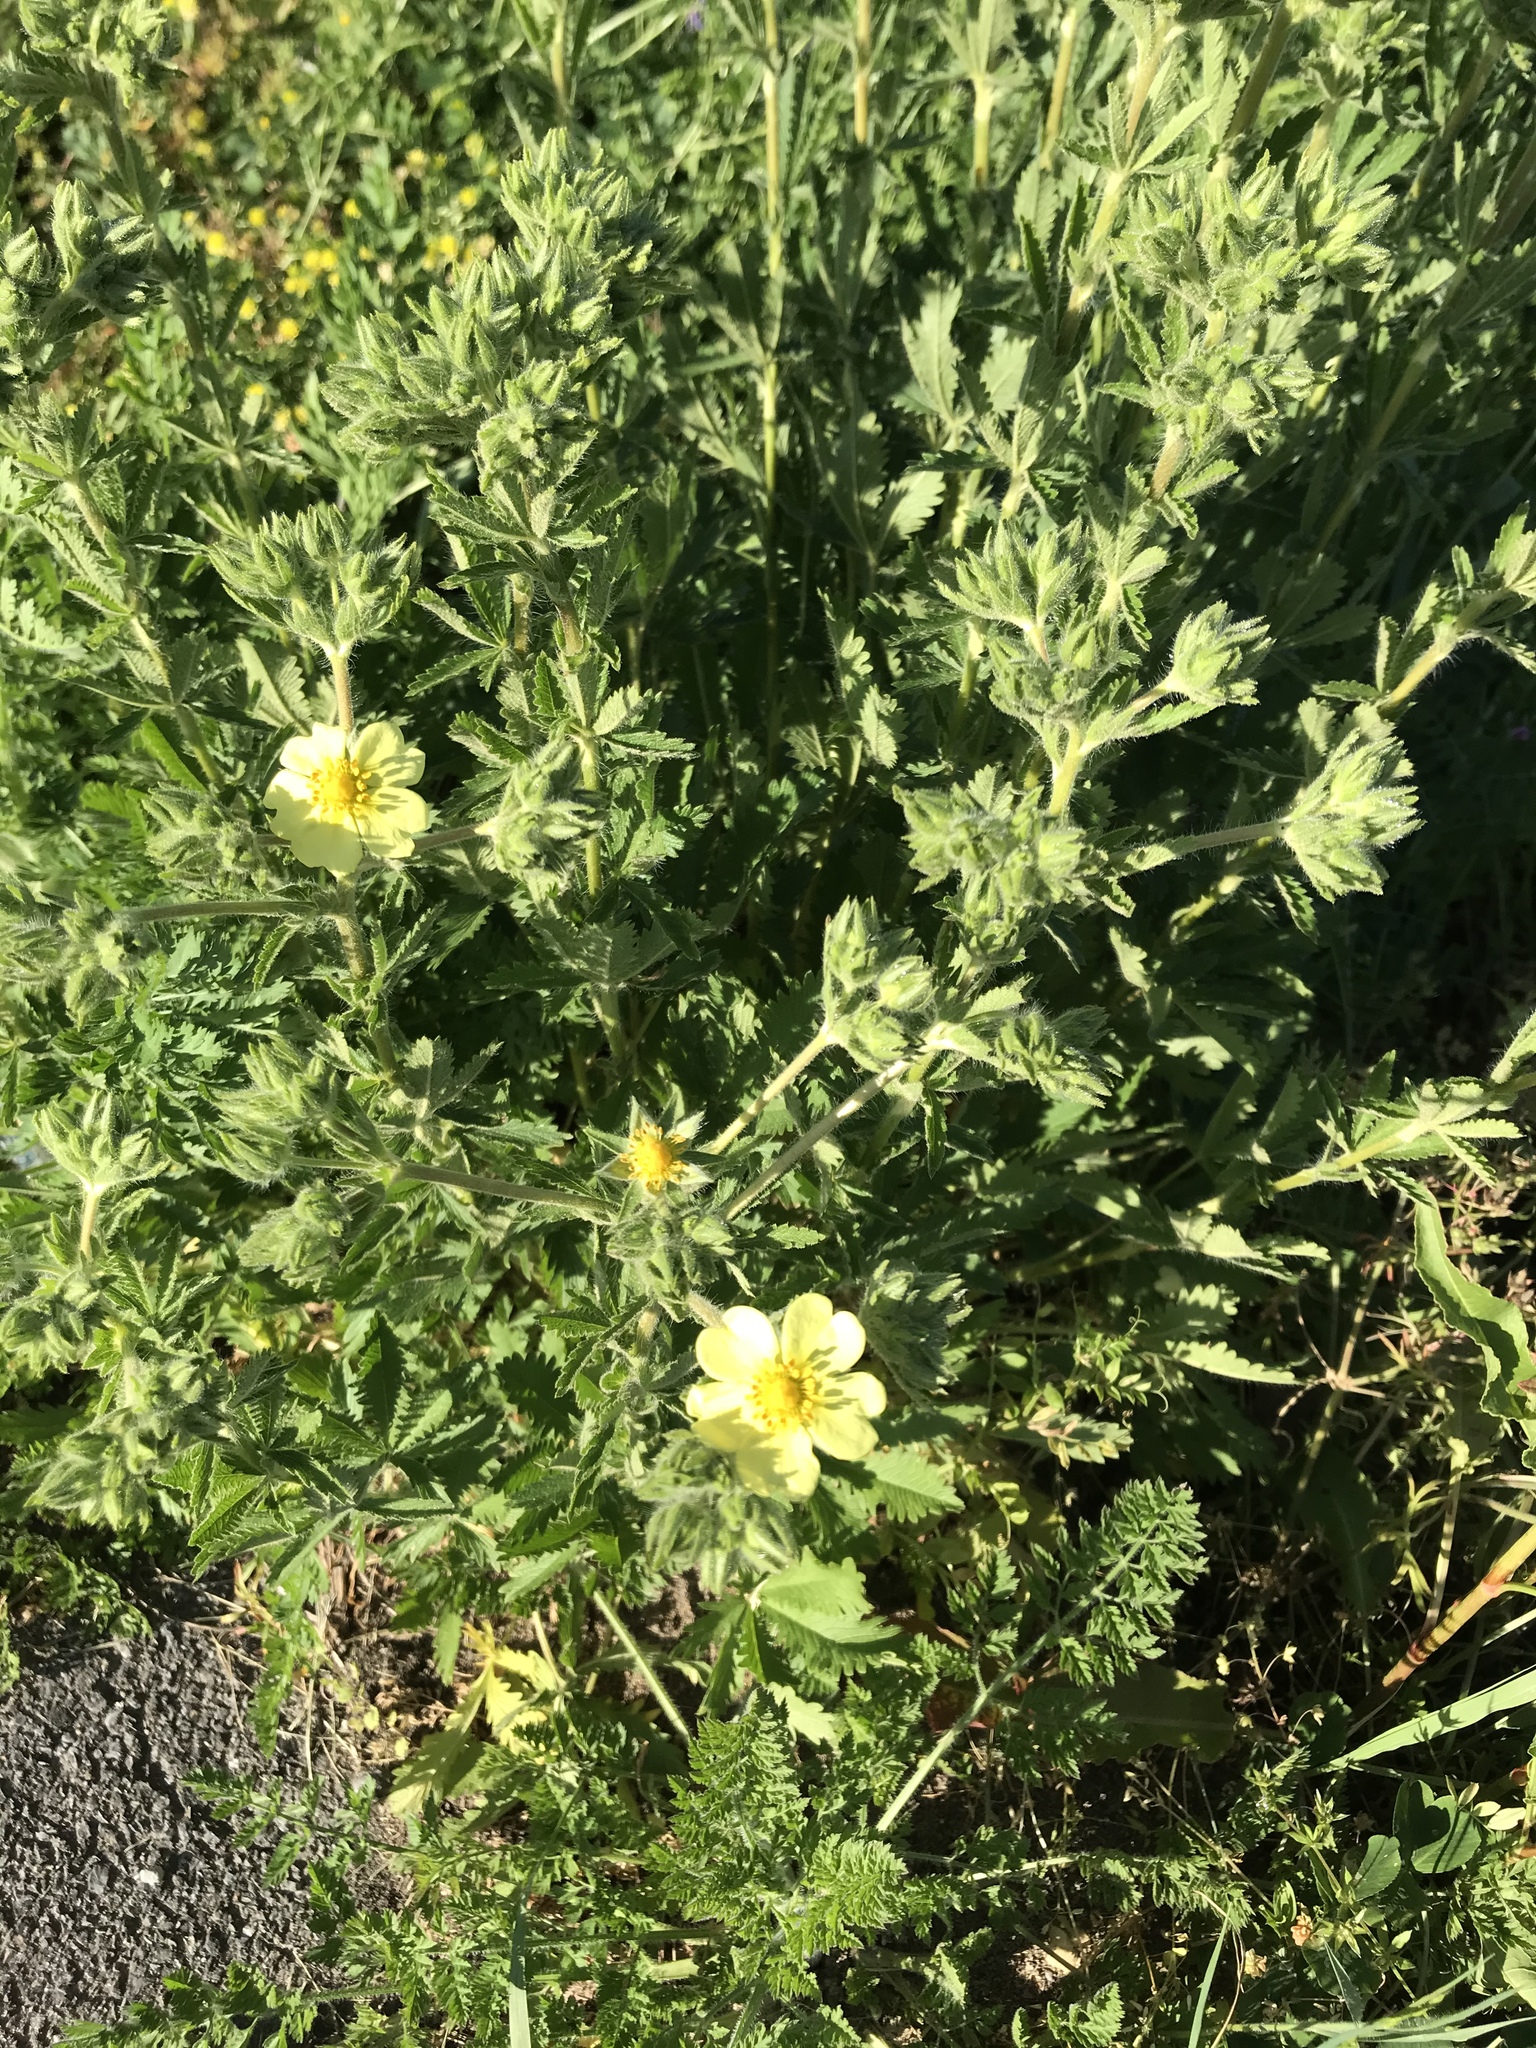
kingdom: Plantae
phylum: Tracheophyta
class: Magnoliopsida
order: Rosales
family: Rosaceae
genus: Potentilla
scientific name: Potentilla recta
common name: Sulphur cinquefoil
